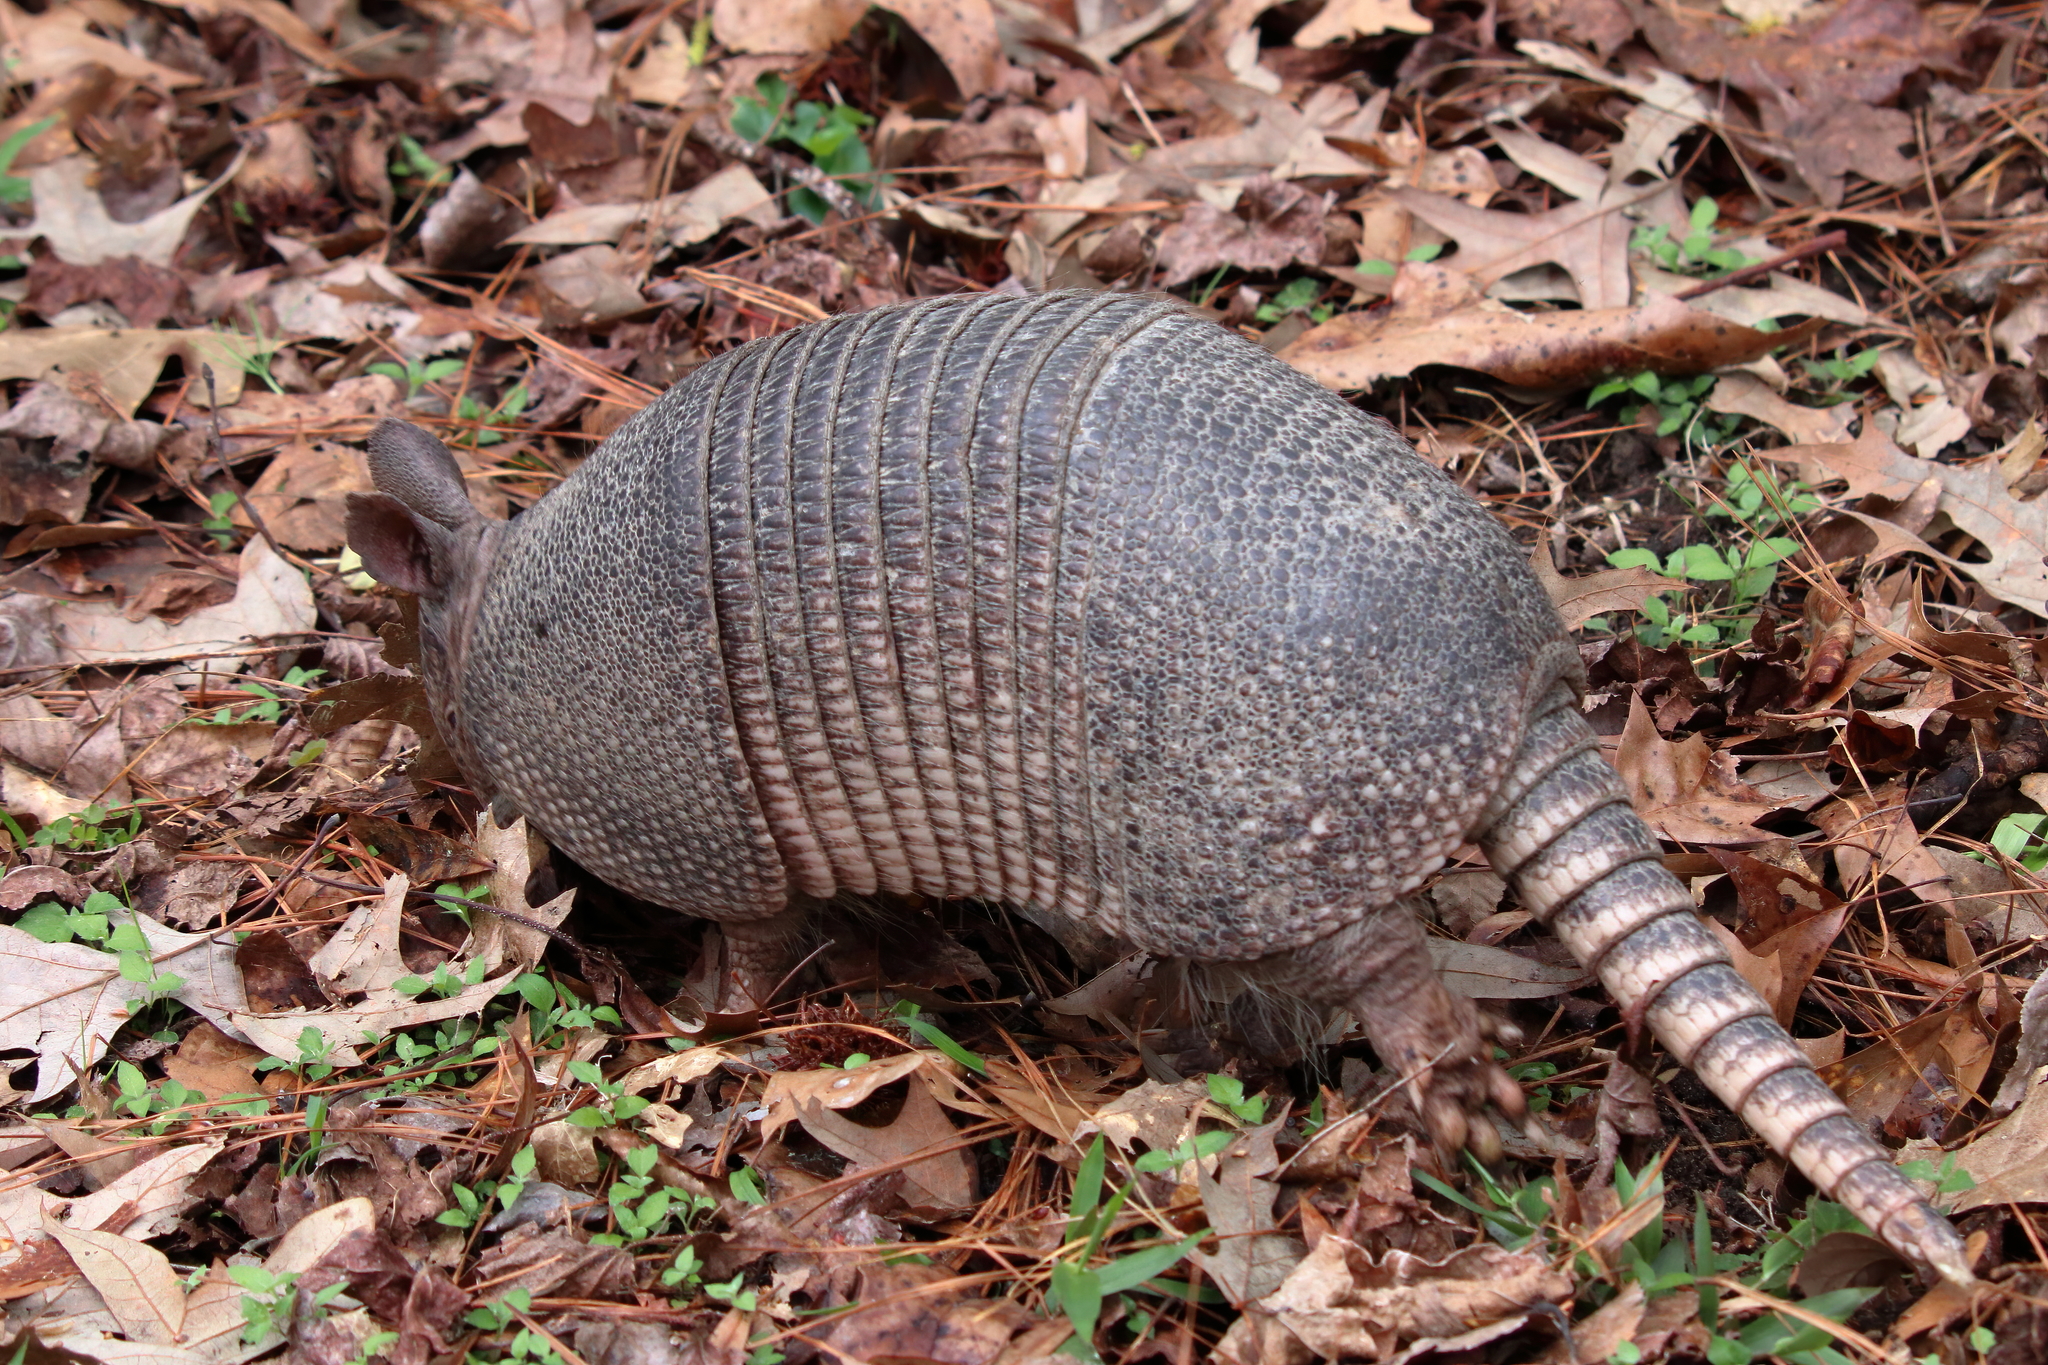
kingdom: Animalia
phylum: Chordata
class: Mammalia
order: Cingulata
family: Dasypodidae
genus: Dasypus
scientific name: Dasypus novemcinctus
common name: Nine-banded armadillo
